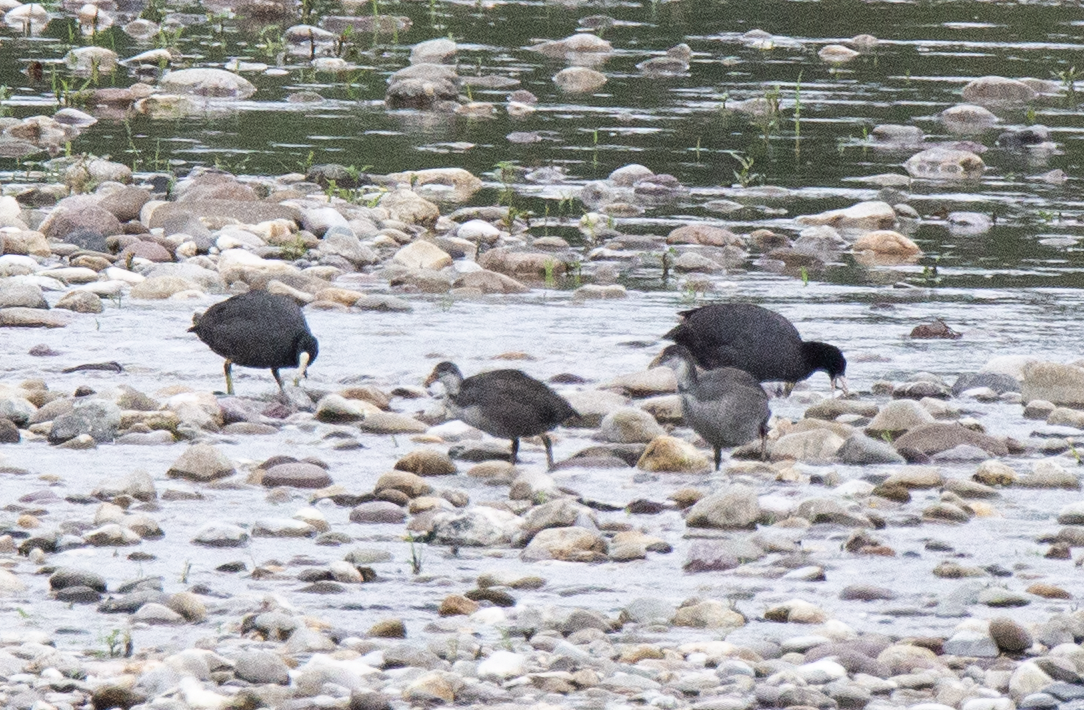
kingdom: Animalia
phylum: Chordata
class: Aves
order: Gruiformes
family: Rallidae
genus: Fulica
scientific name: Fulica atra
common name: Eurasian coot
